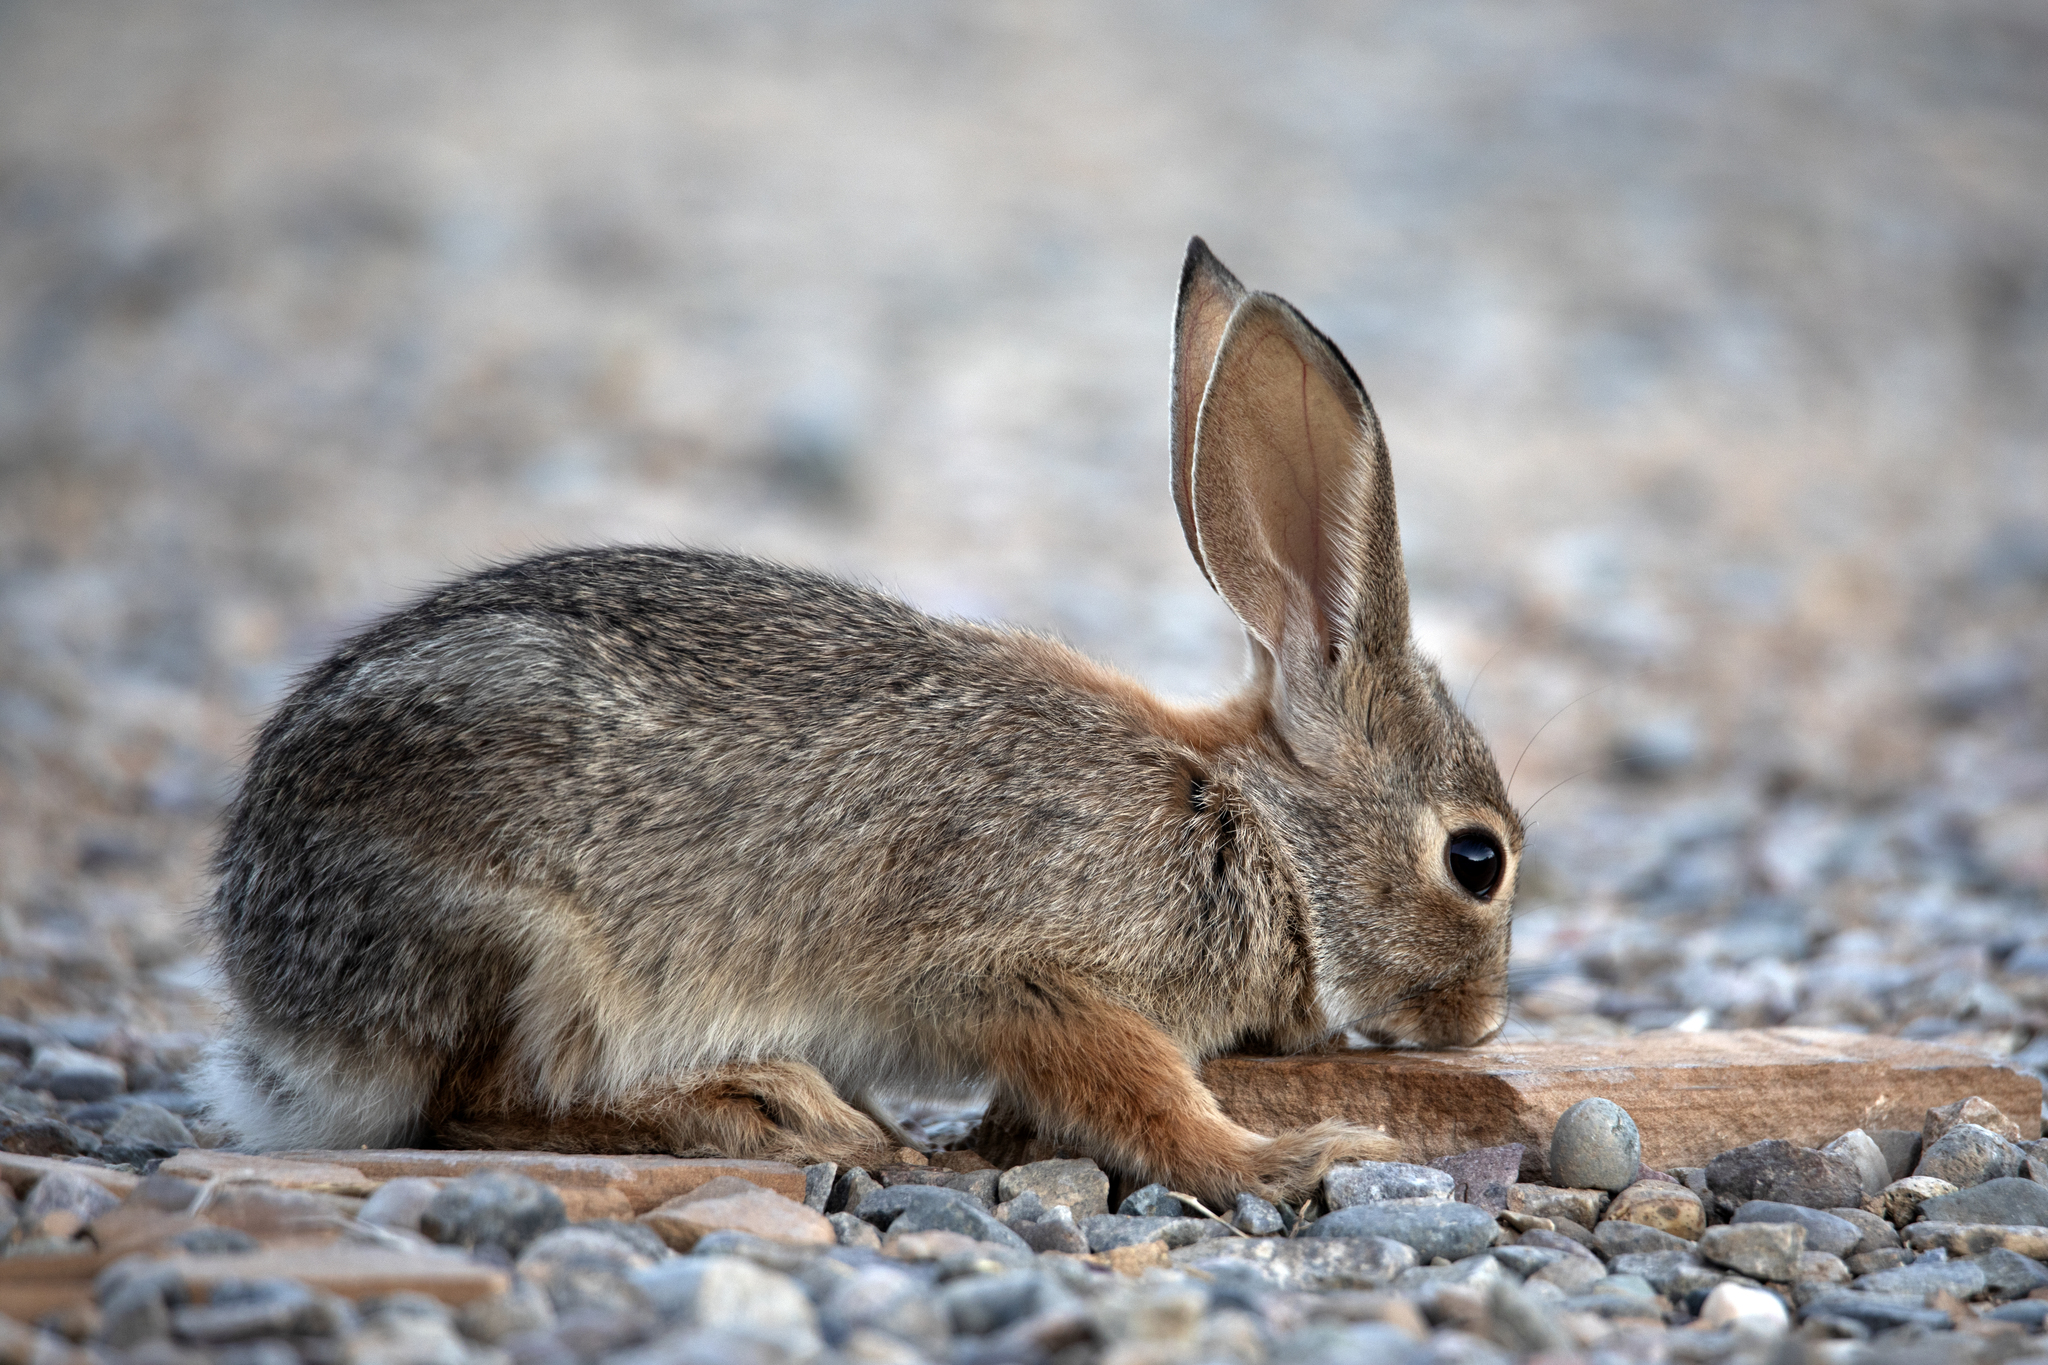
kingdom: Animalia
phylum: Chordata
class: Mammalia
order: Lagomorpha
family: Leporidae
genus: Sylvilagus
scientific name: Sylvilagus audubonii
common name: Desert cottontail
